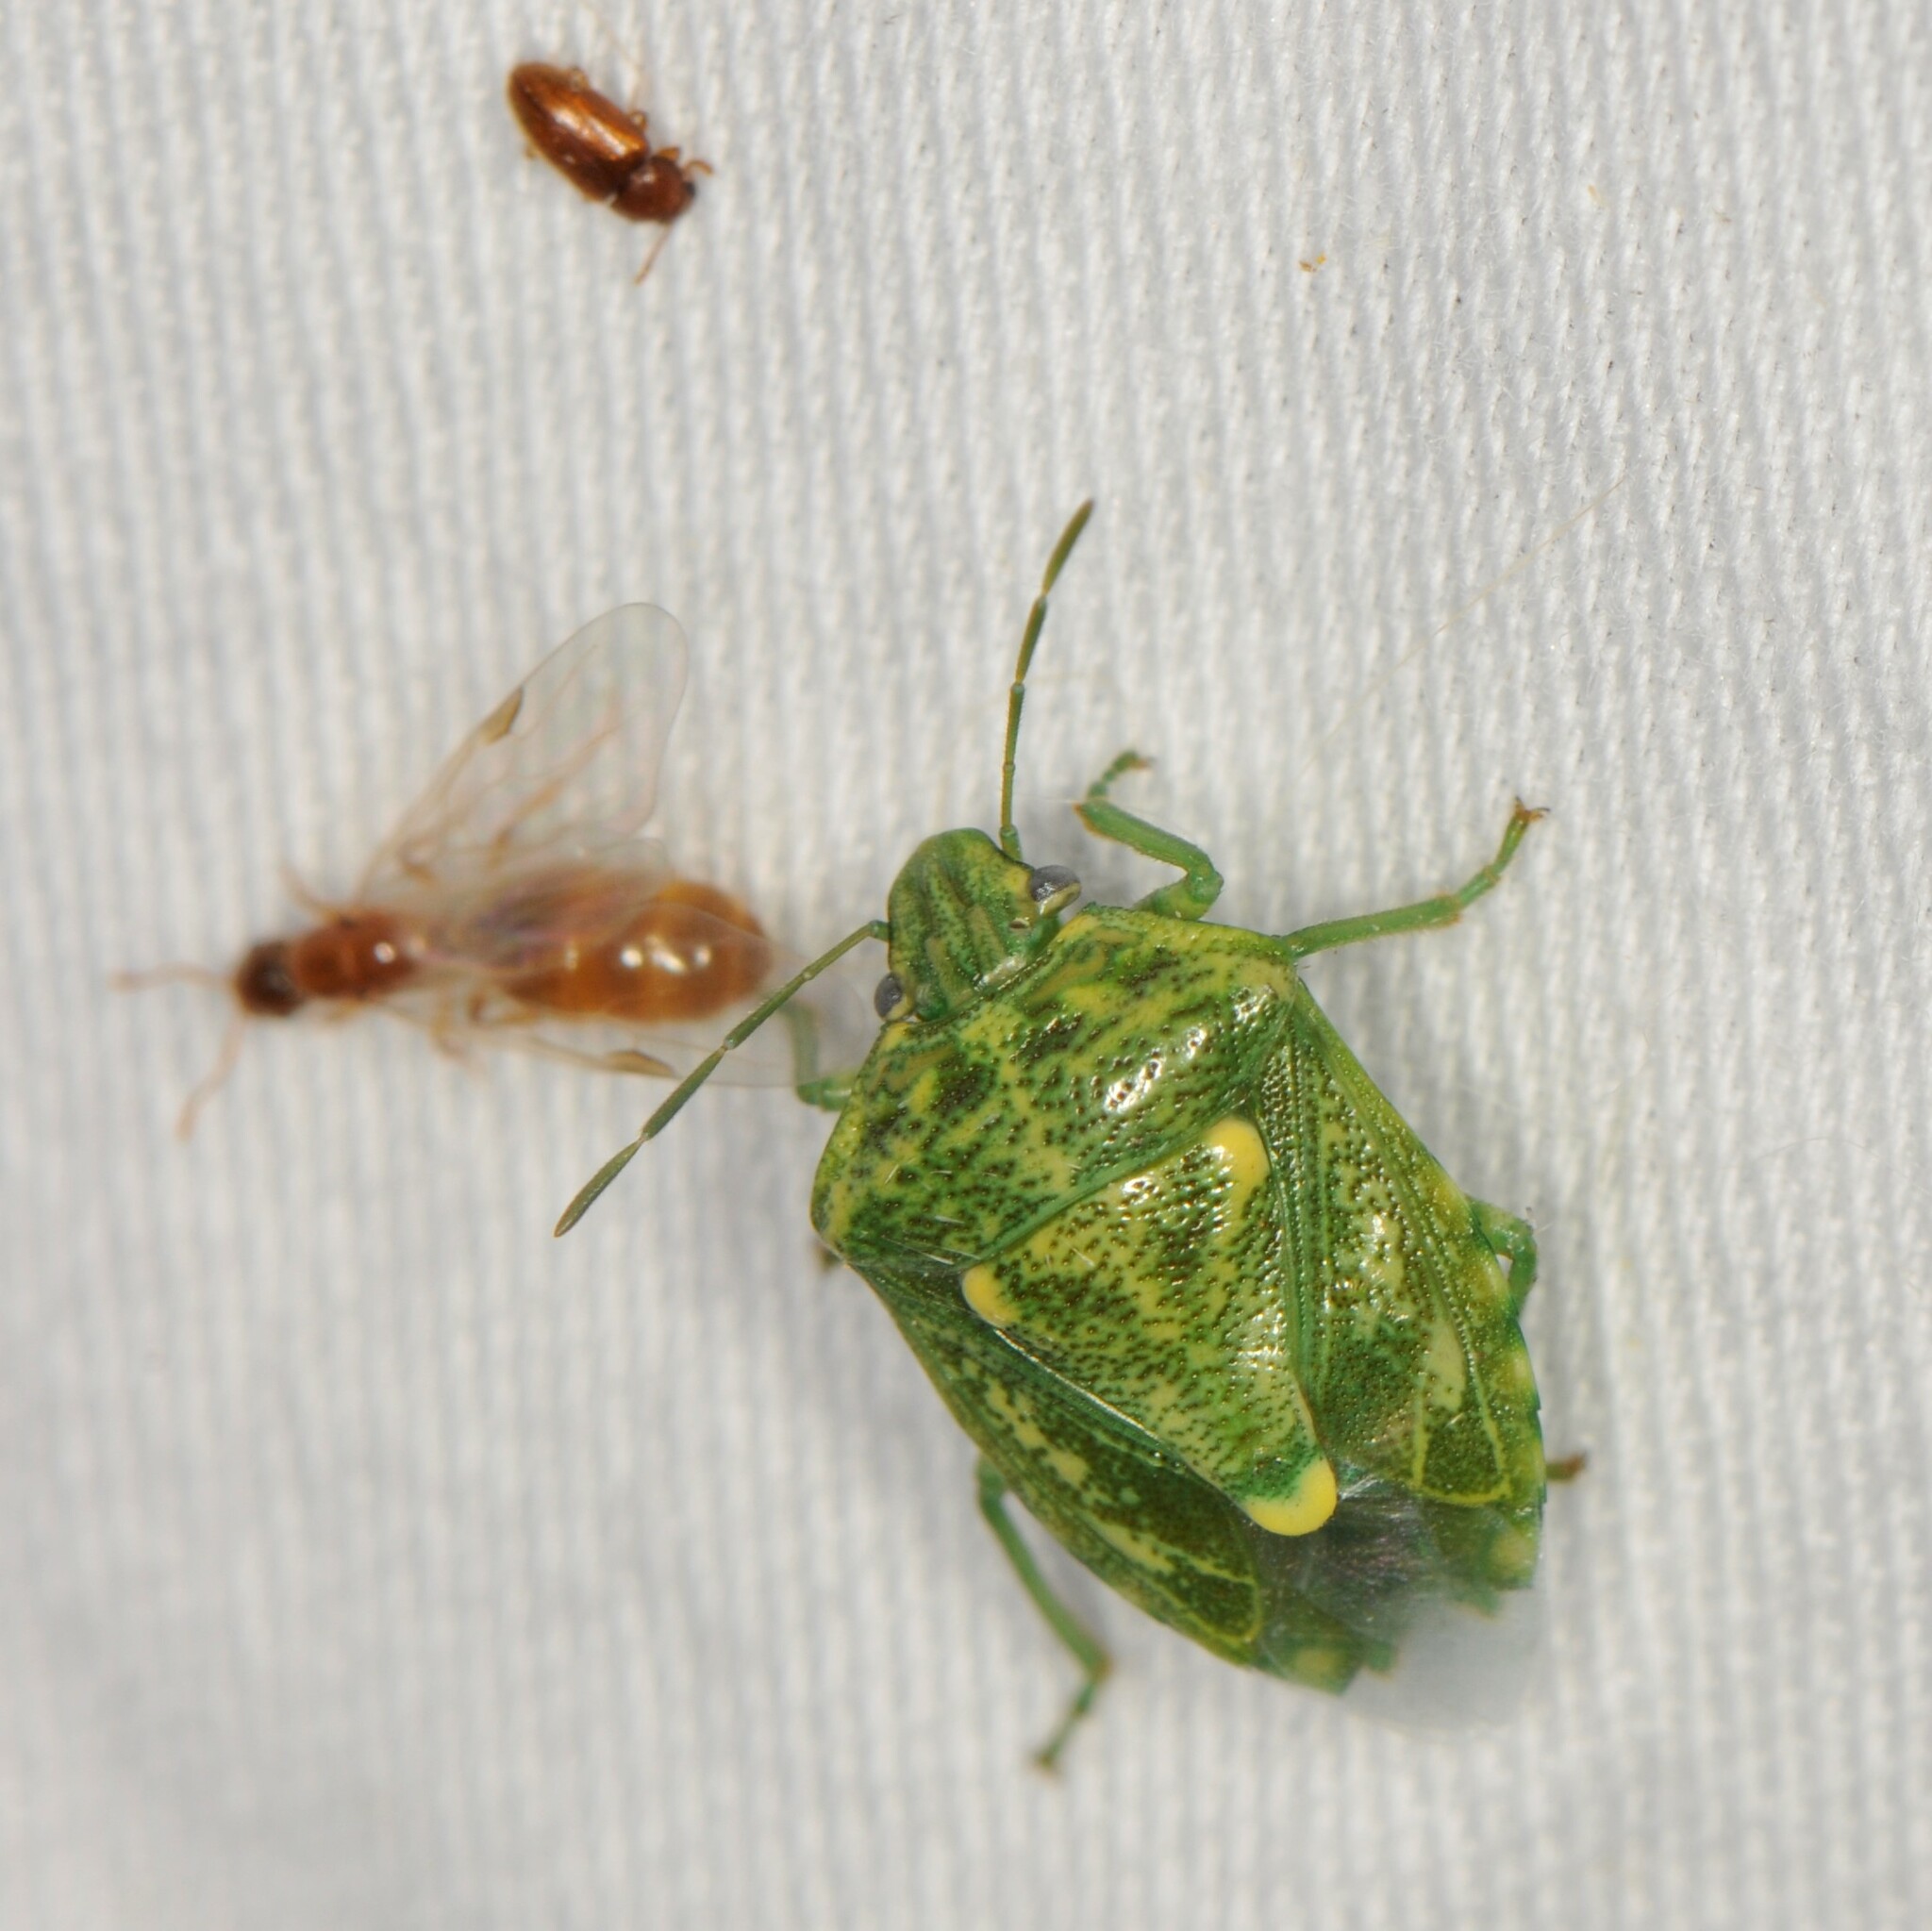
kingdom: Animalia
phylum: Arthropoda
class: Insecta
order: Hemiptera
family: Pentatomidae
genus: Banasa
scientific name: Banasa euchlora
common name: Cedar berry bug
